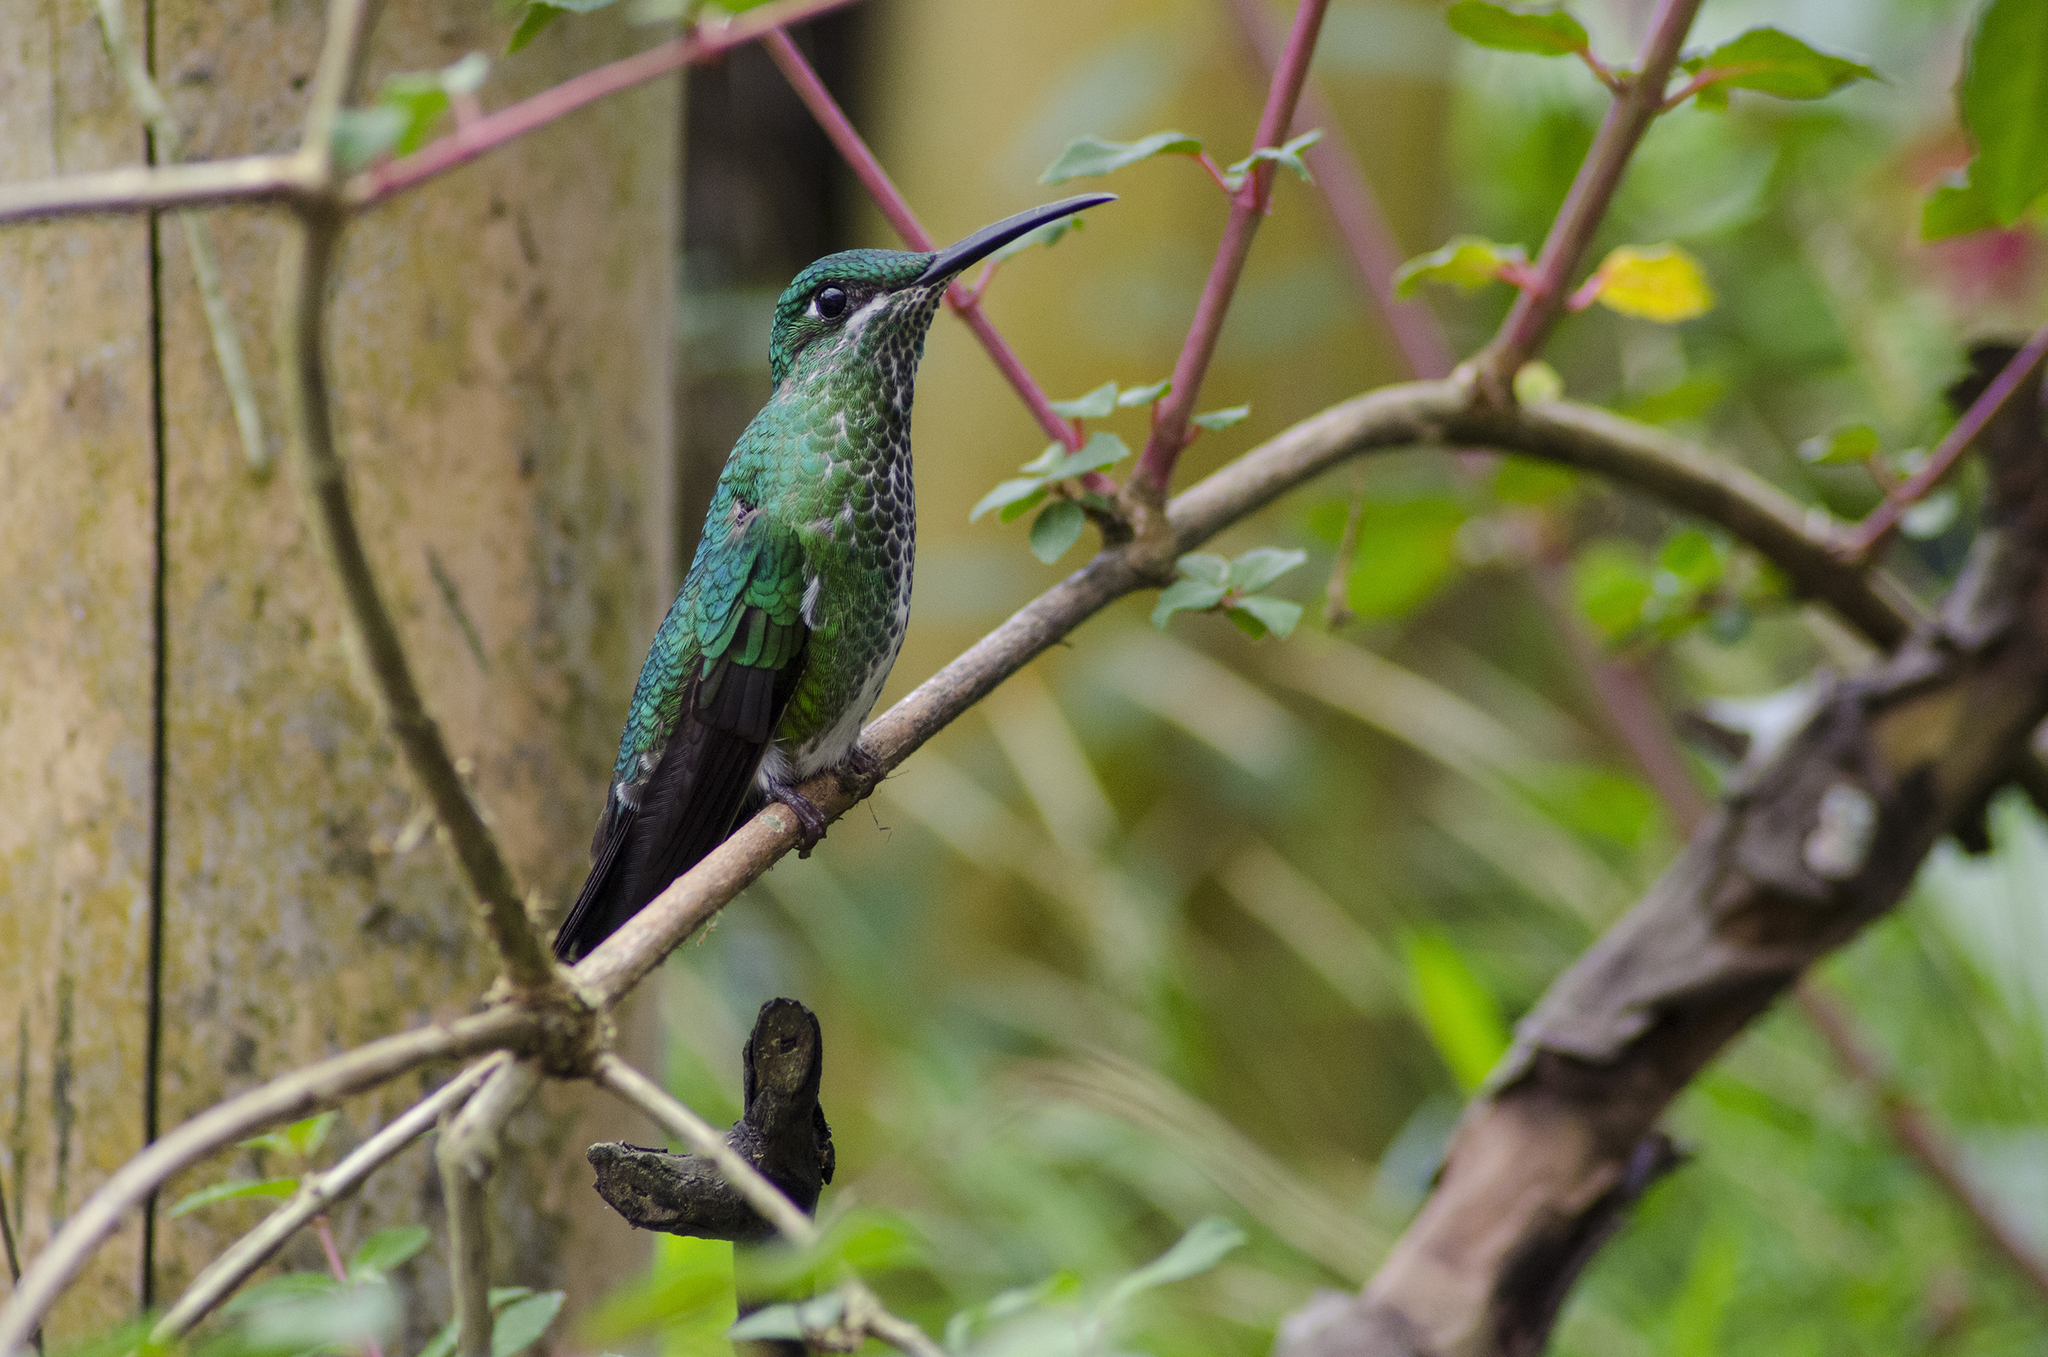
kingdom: Animalia
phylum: Chordata
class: Aves
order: Apodiformes
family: Trochilidae
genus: Heliodoxa
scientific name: Heliodoxa jacula
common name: Green-crowned brilliant
